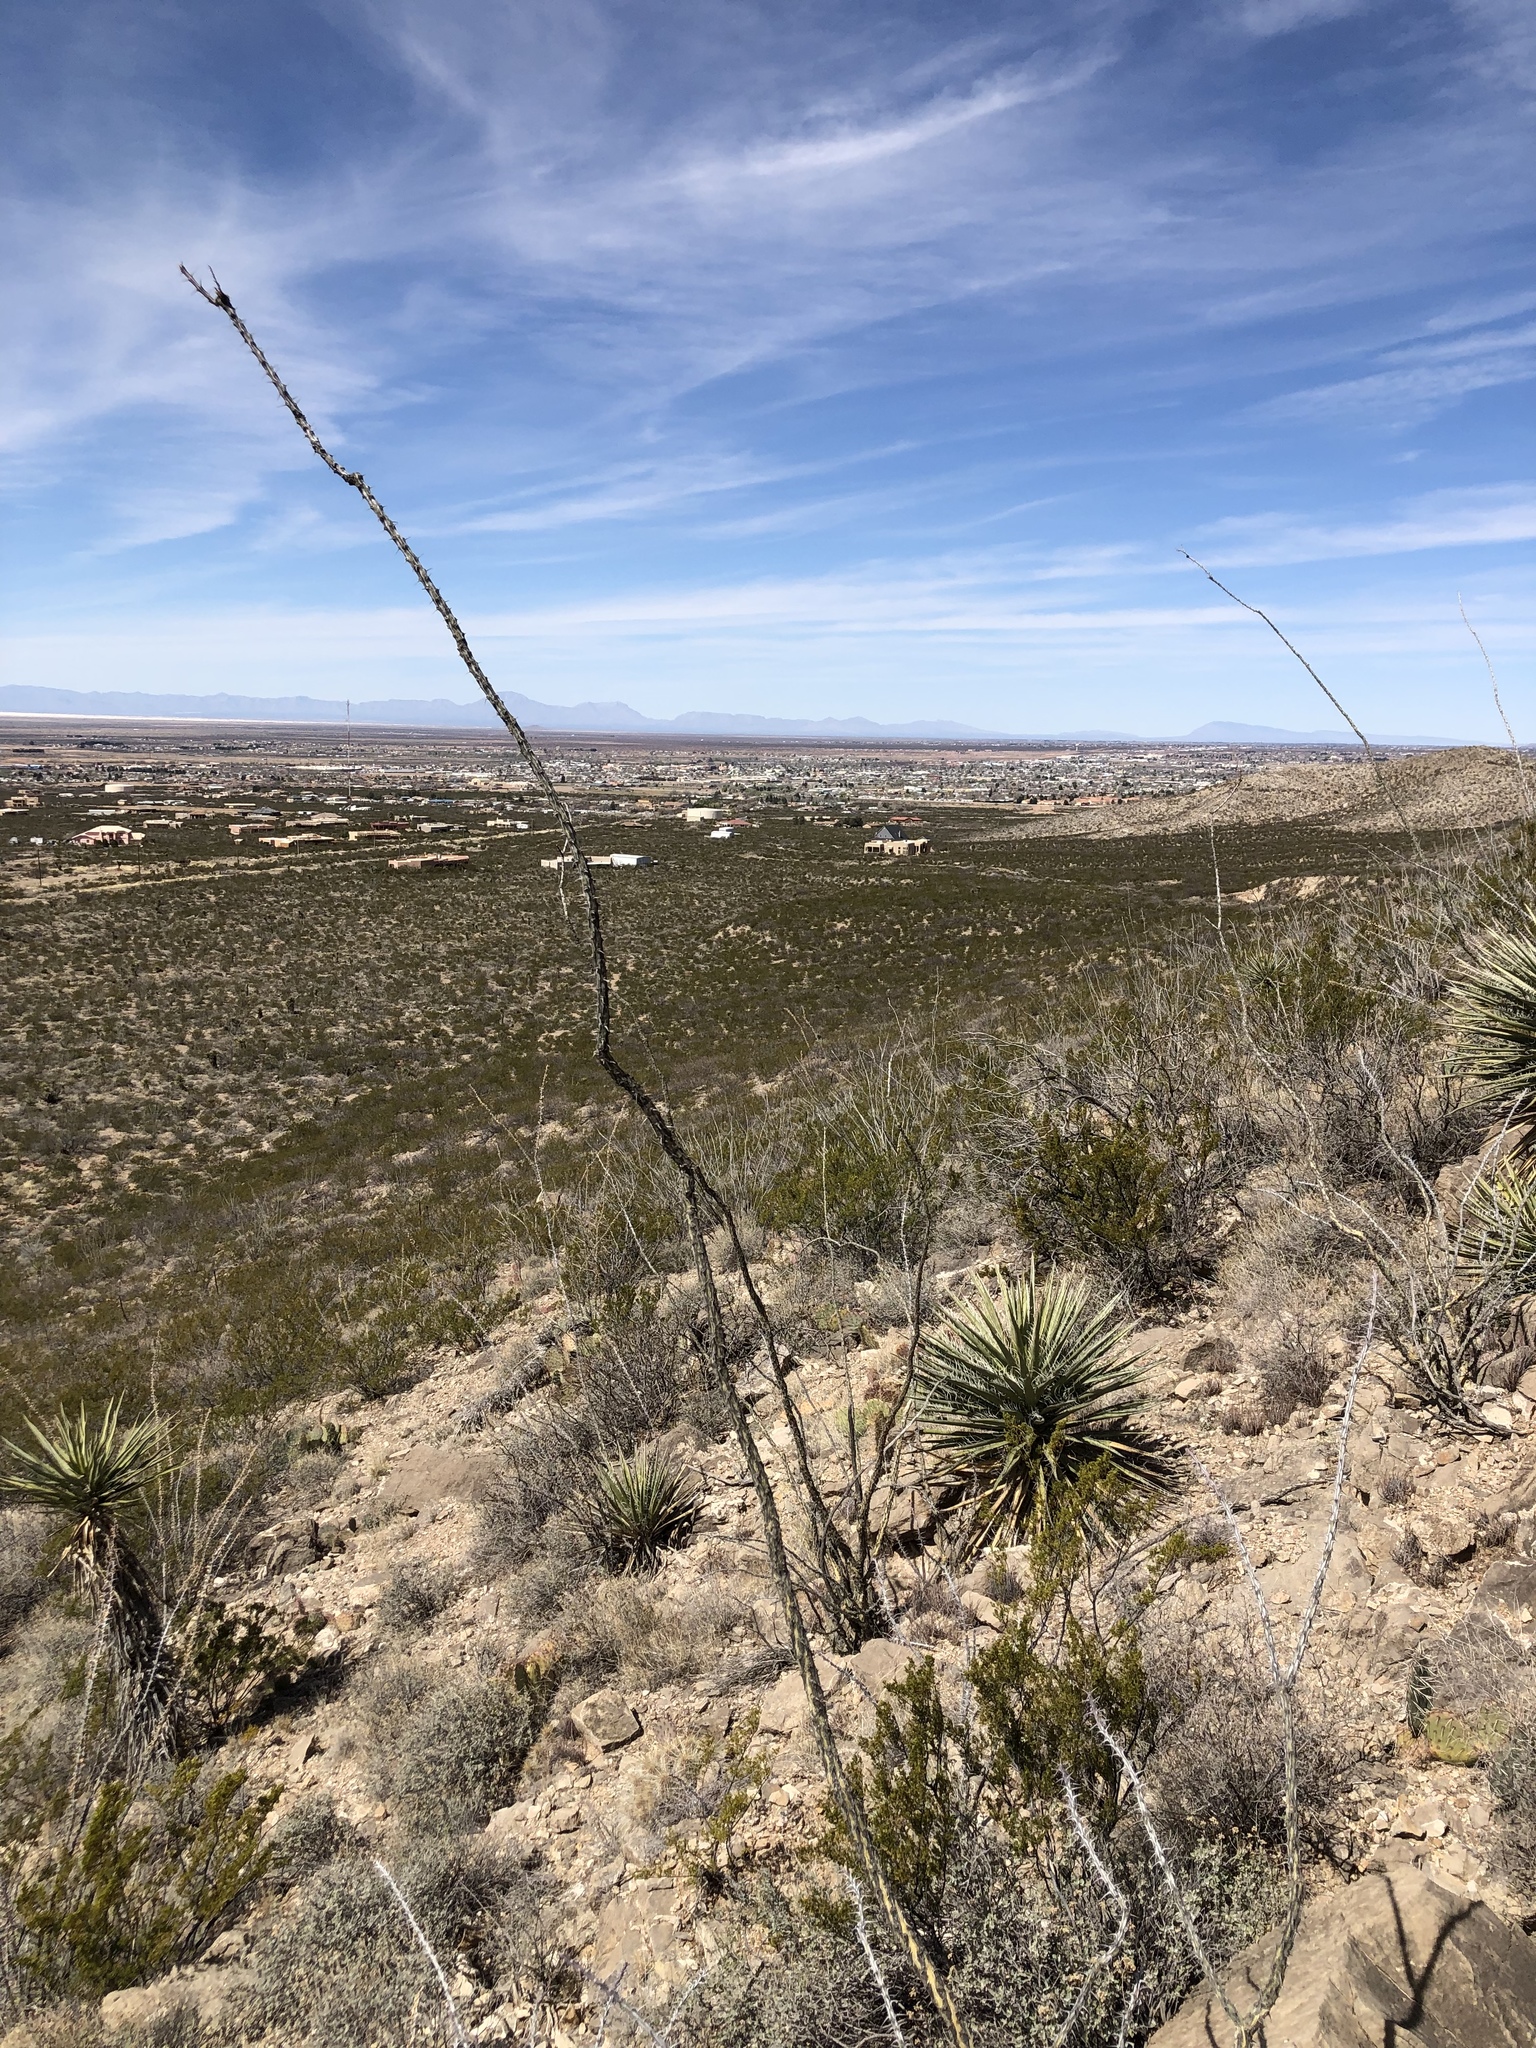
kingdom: Plantae
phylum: Tracheophyta
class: Magnoliopsida
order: Ericales
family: Fouquieriaceae
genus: Fouquieria
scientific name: Fouquieria splendens
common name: Vine-cactus
